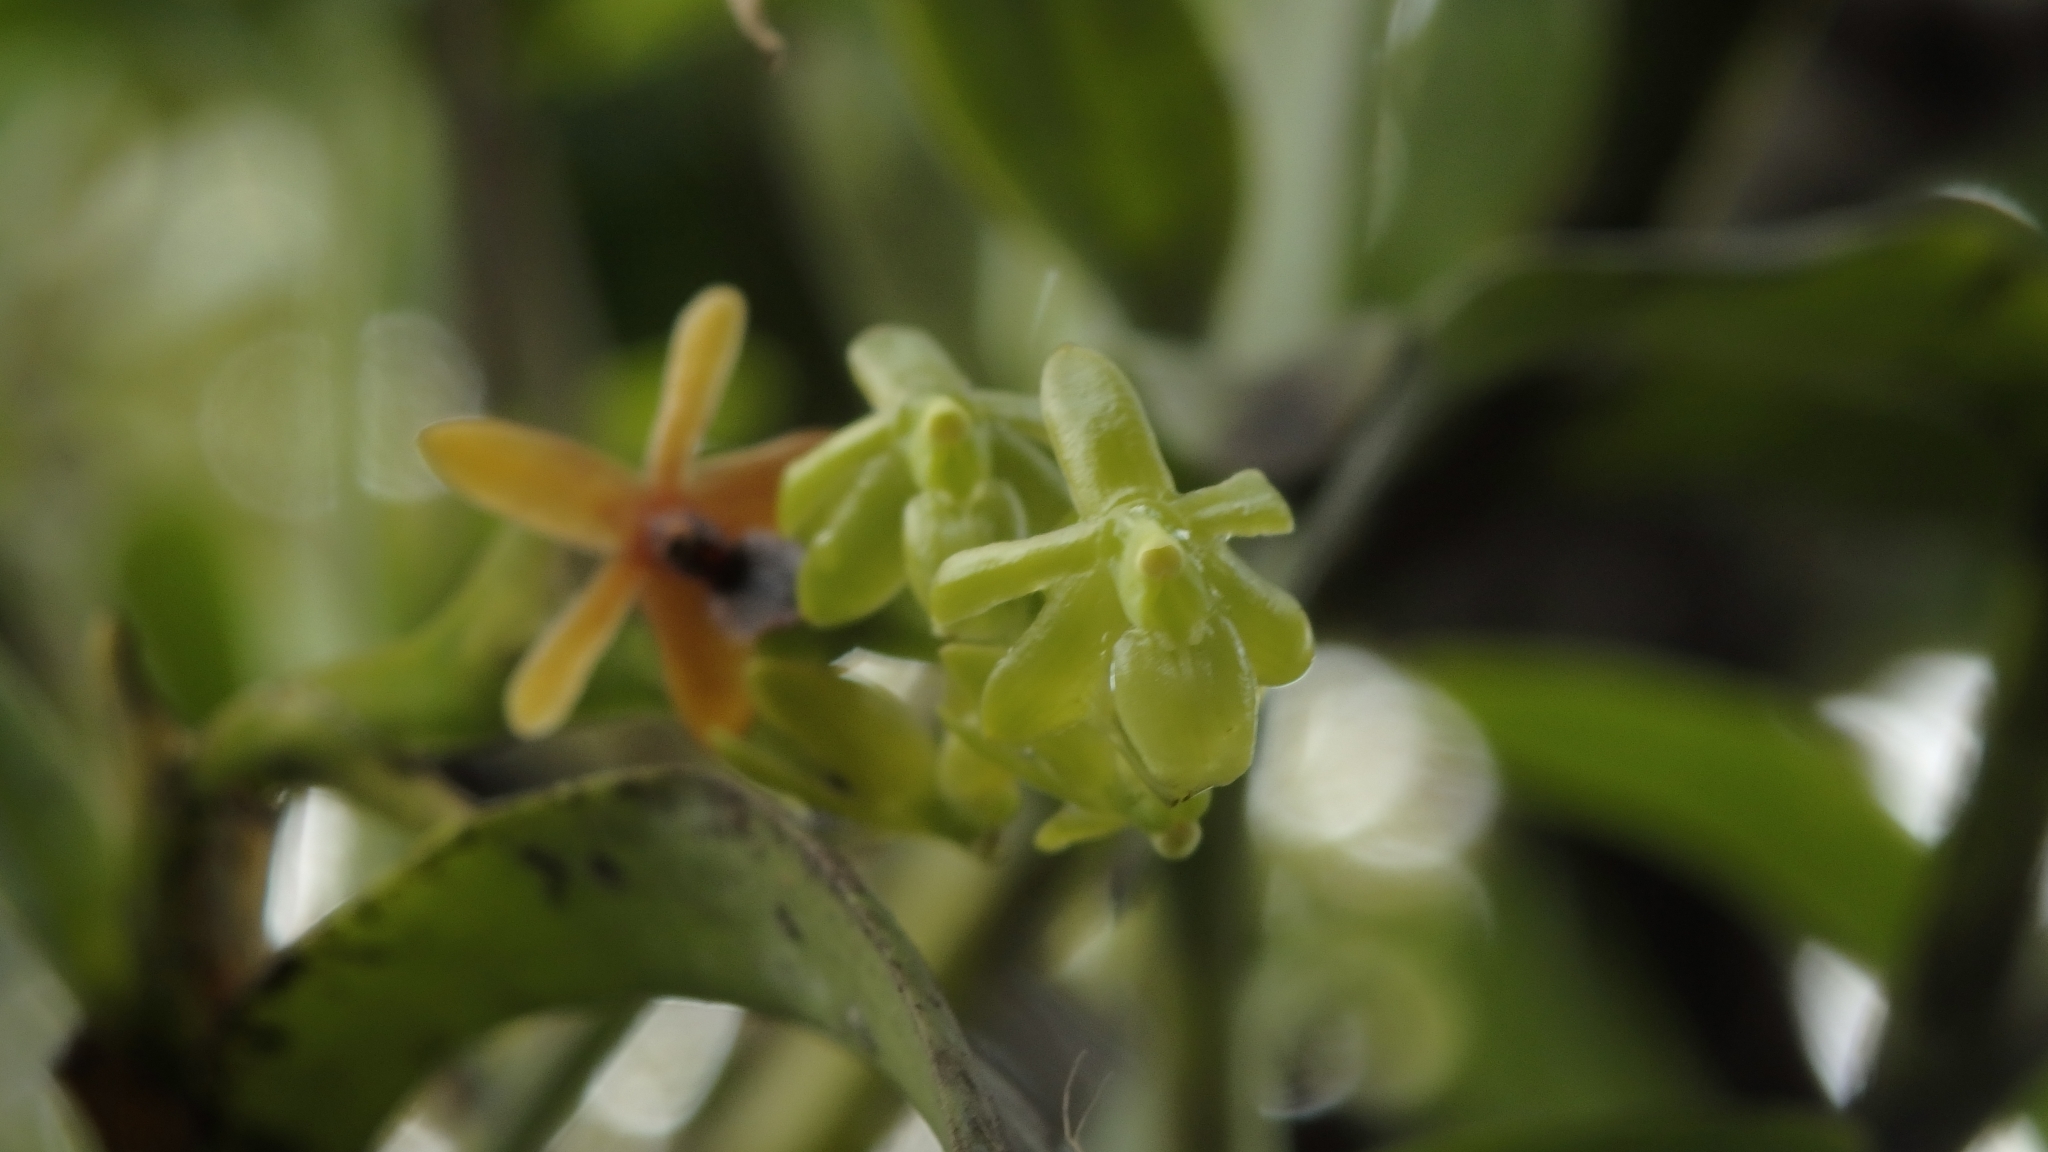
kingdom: Plantae
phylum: Tracheophyta
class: Liliopsida
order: Asparagales
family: Orchidaceae
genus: Epidendrum
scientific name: Epidendrum cardiophorum
